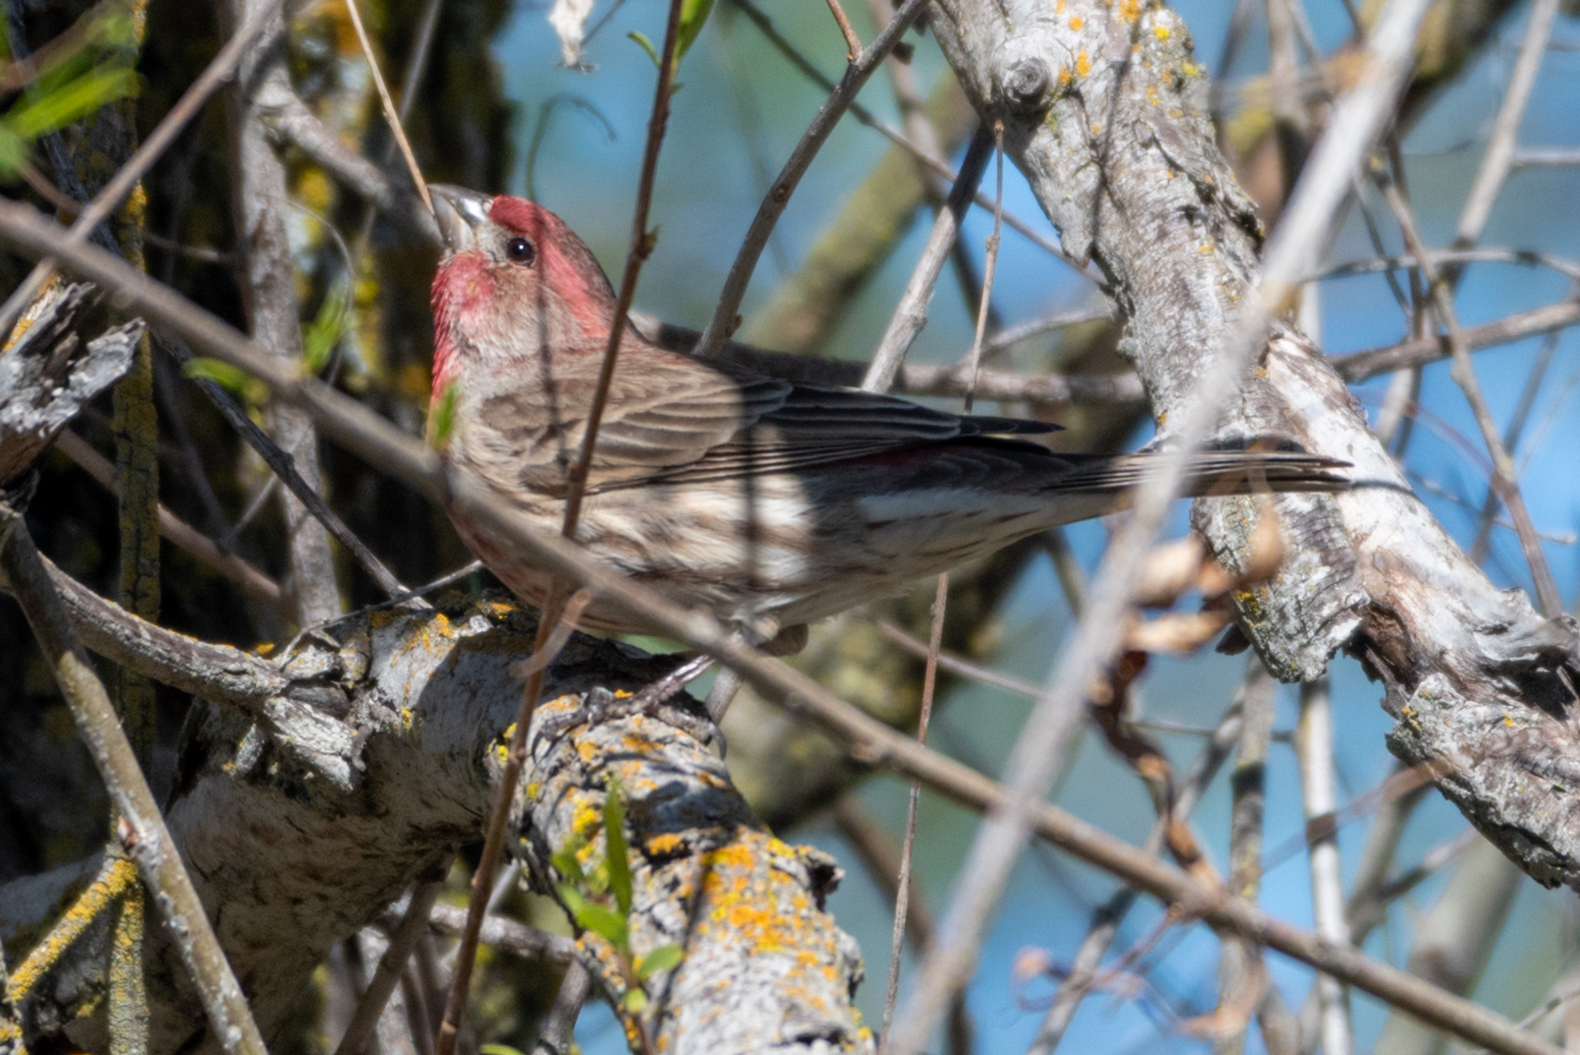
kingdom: Animalia
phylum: Chordata
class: Aves
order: Passeriformes
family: Fringillidae
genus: Haemorhous
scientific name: Haemorhous mexicanus
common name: House finch
